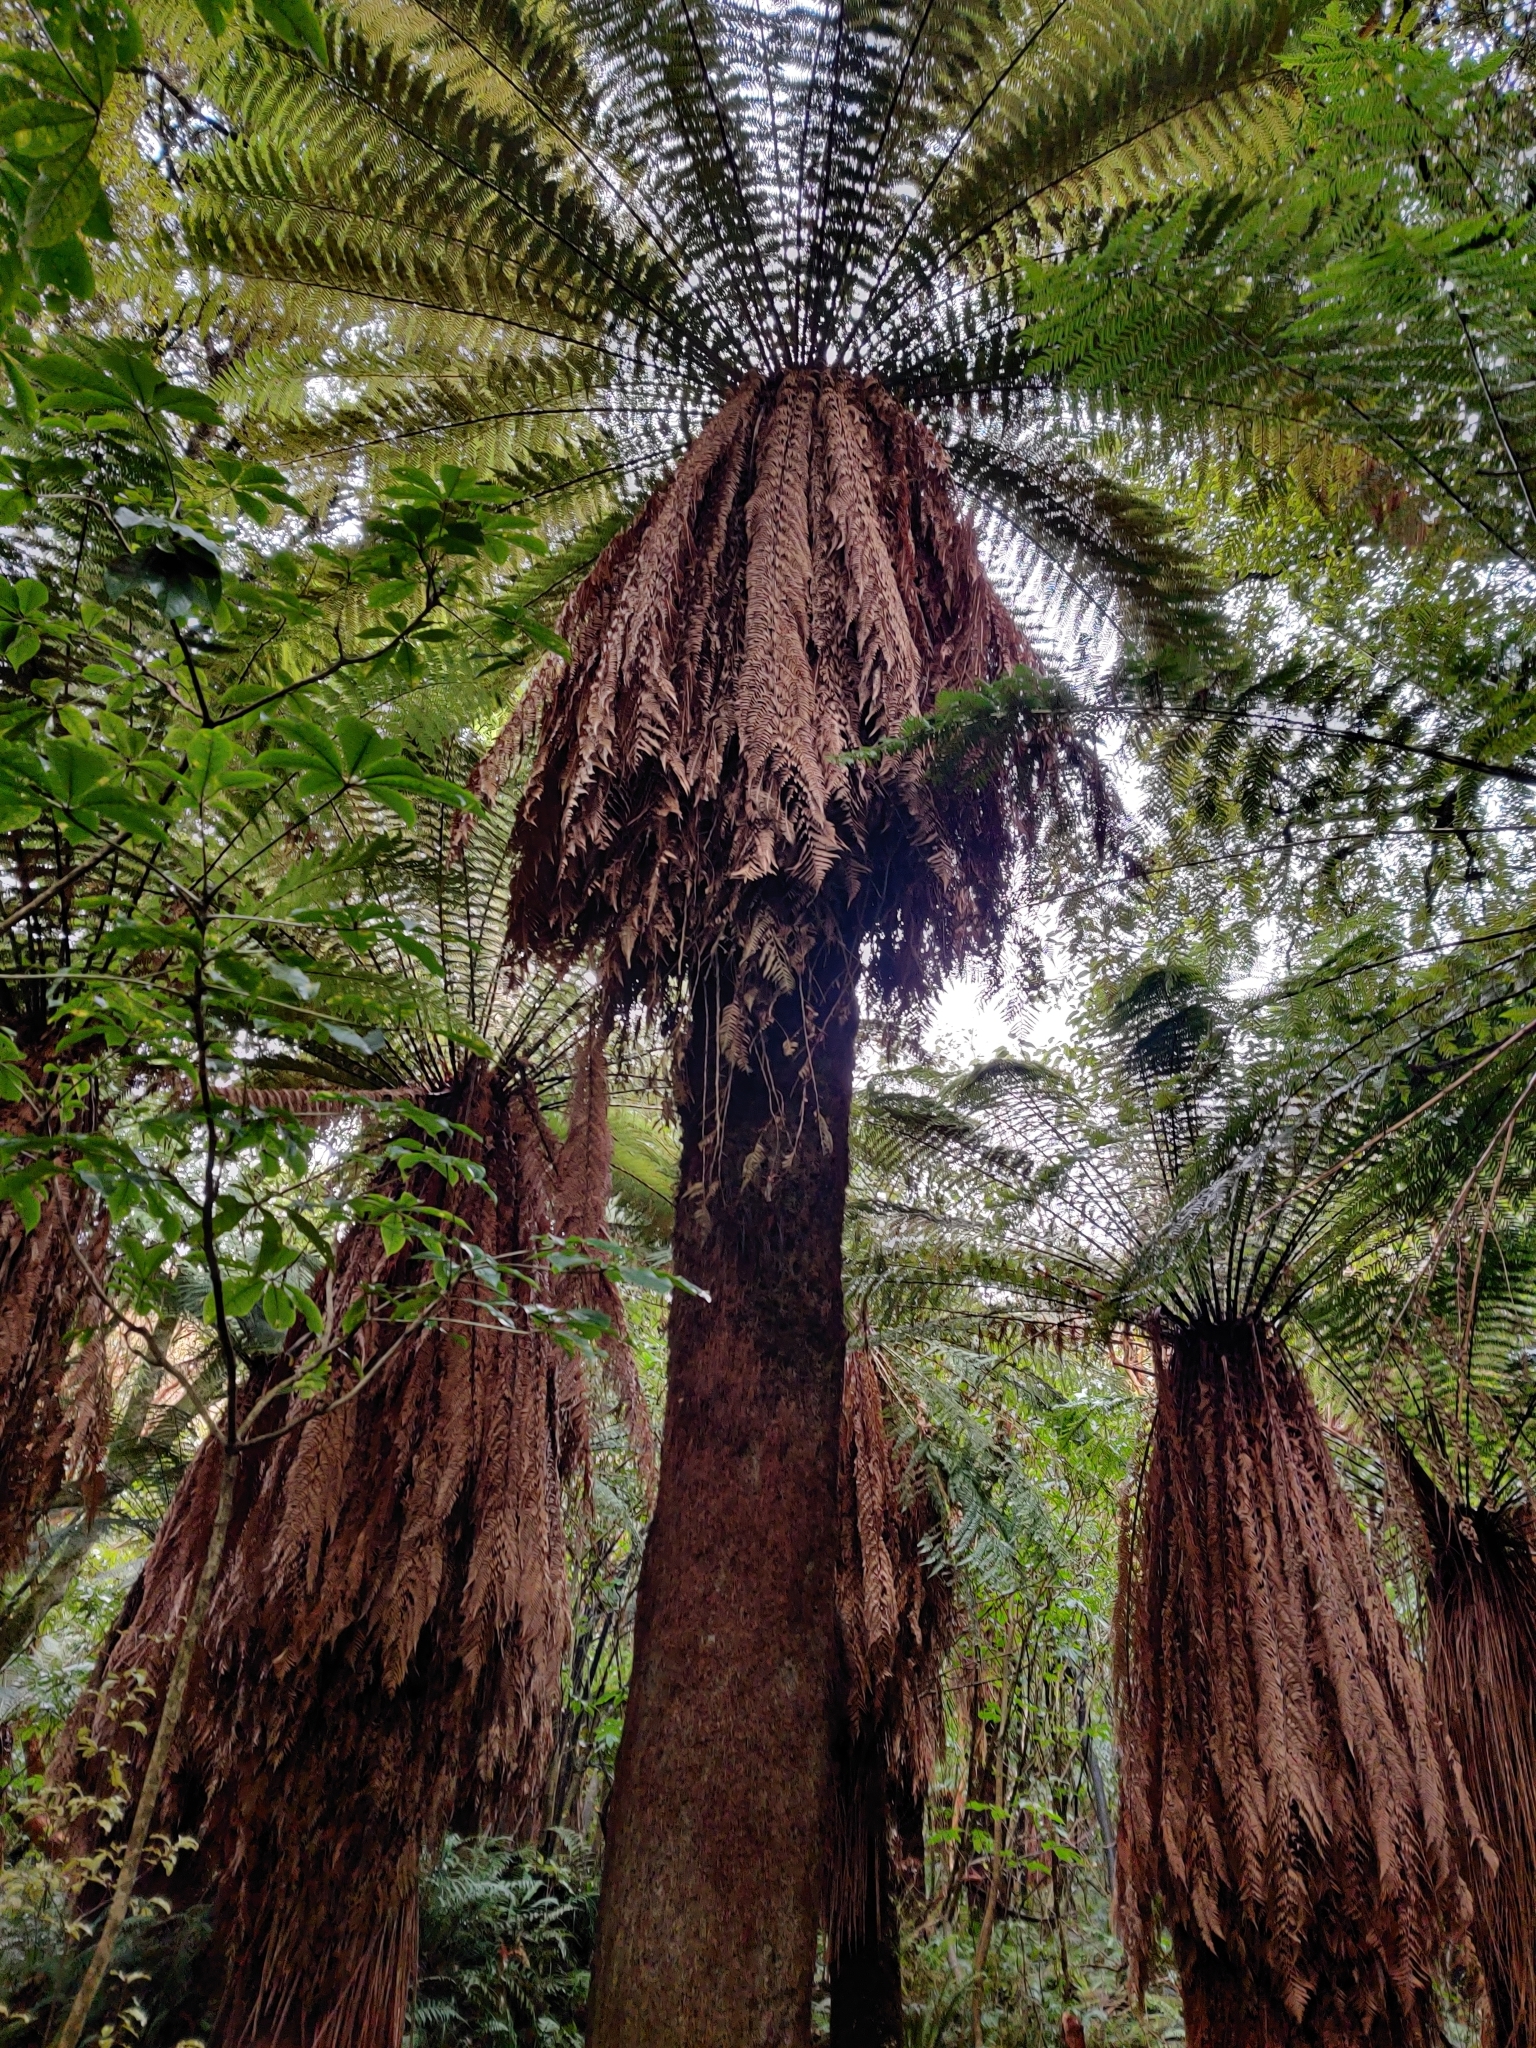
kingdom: Plantae
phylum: Tracheophyta
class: Polypodiopsida
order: Cyatheales
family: Dicksoniaceae
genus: Dicksonia
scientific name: Dicksonia fibrosa
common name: Golden tree fern
